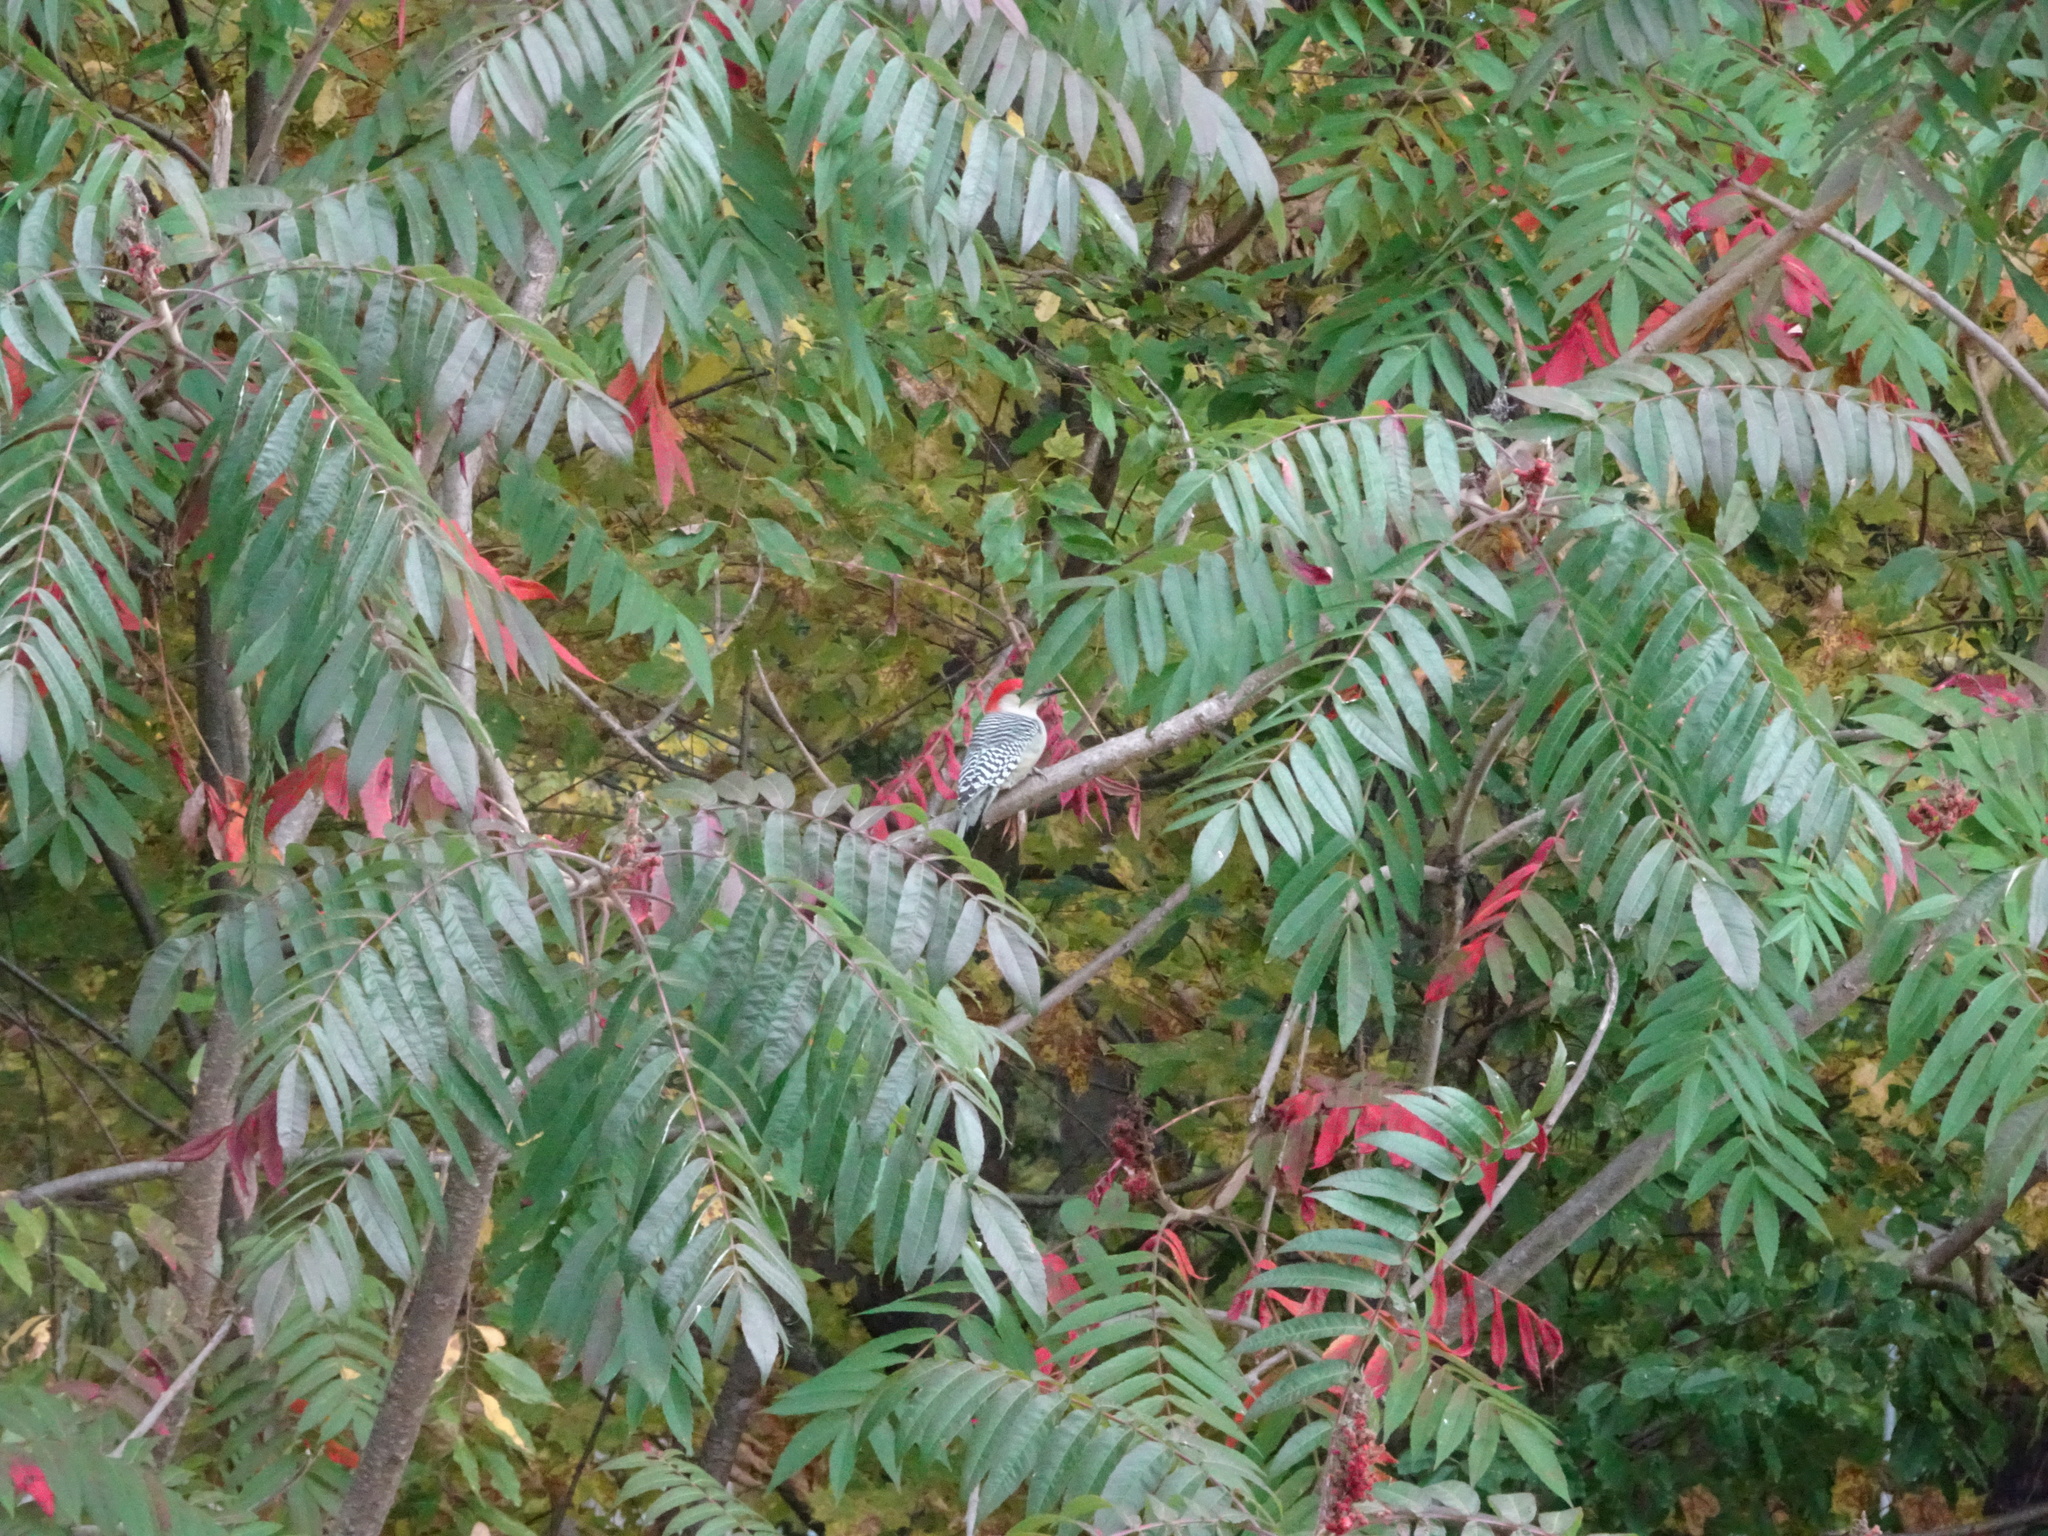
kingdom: Animalia
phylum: Chordata
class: Aves
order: Piciformes
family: Picidae
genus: Melanerpes
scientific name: Melanerpes carolinus
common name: Red-bellied woodpecker
